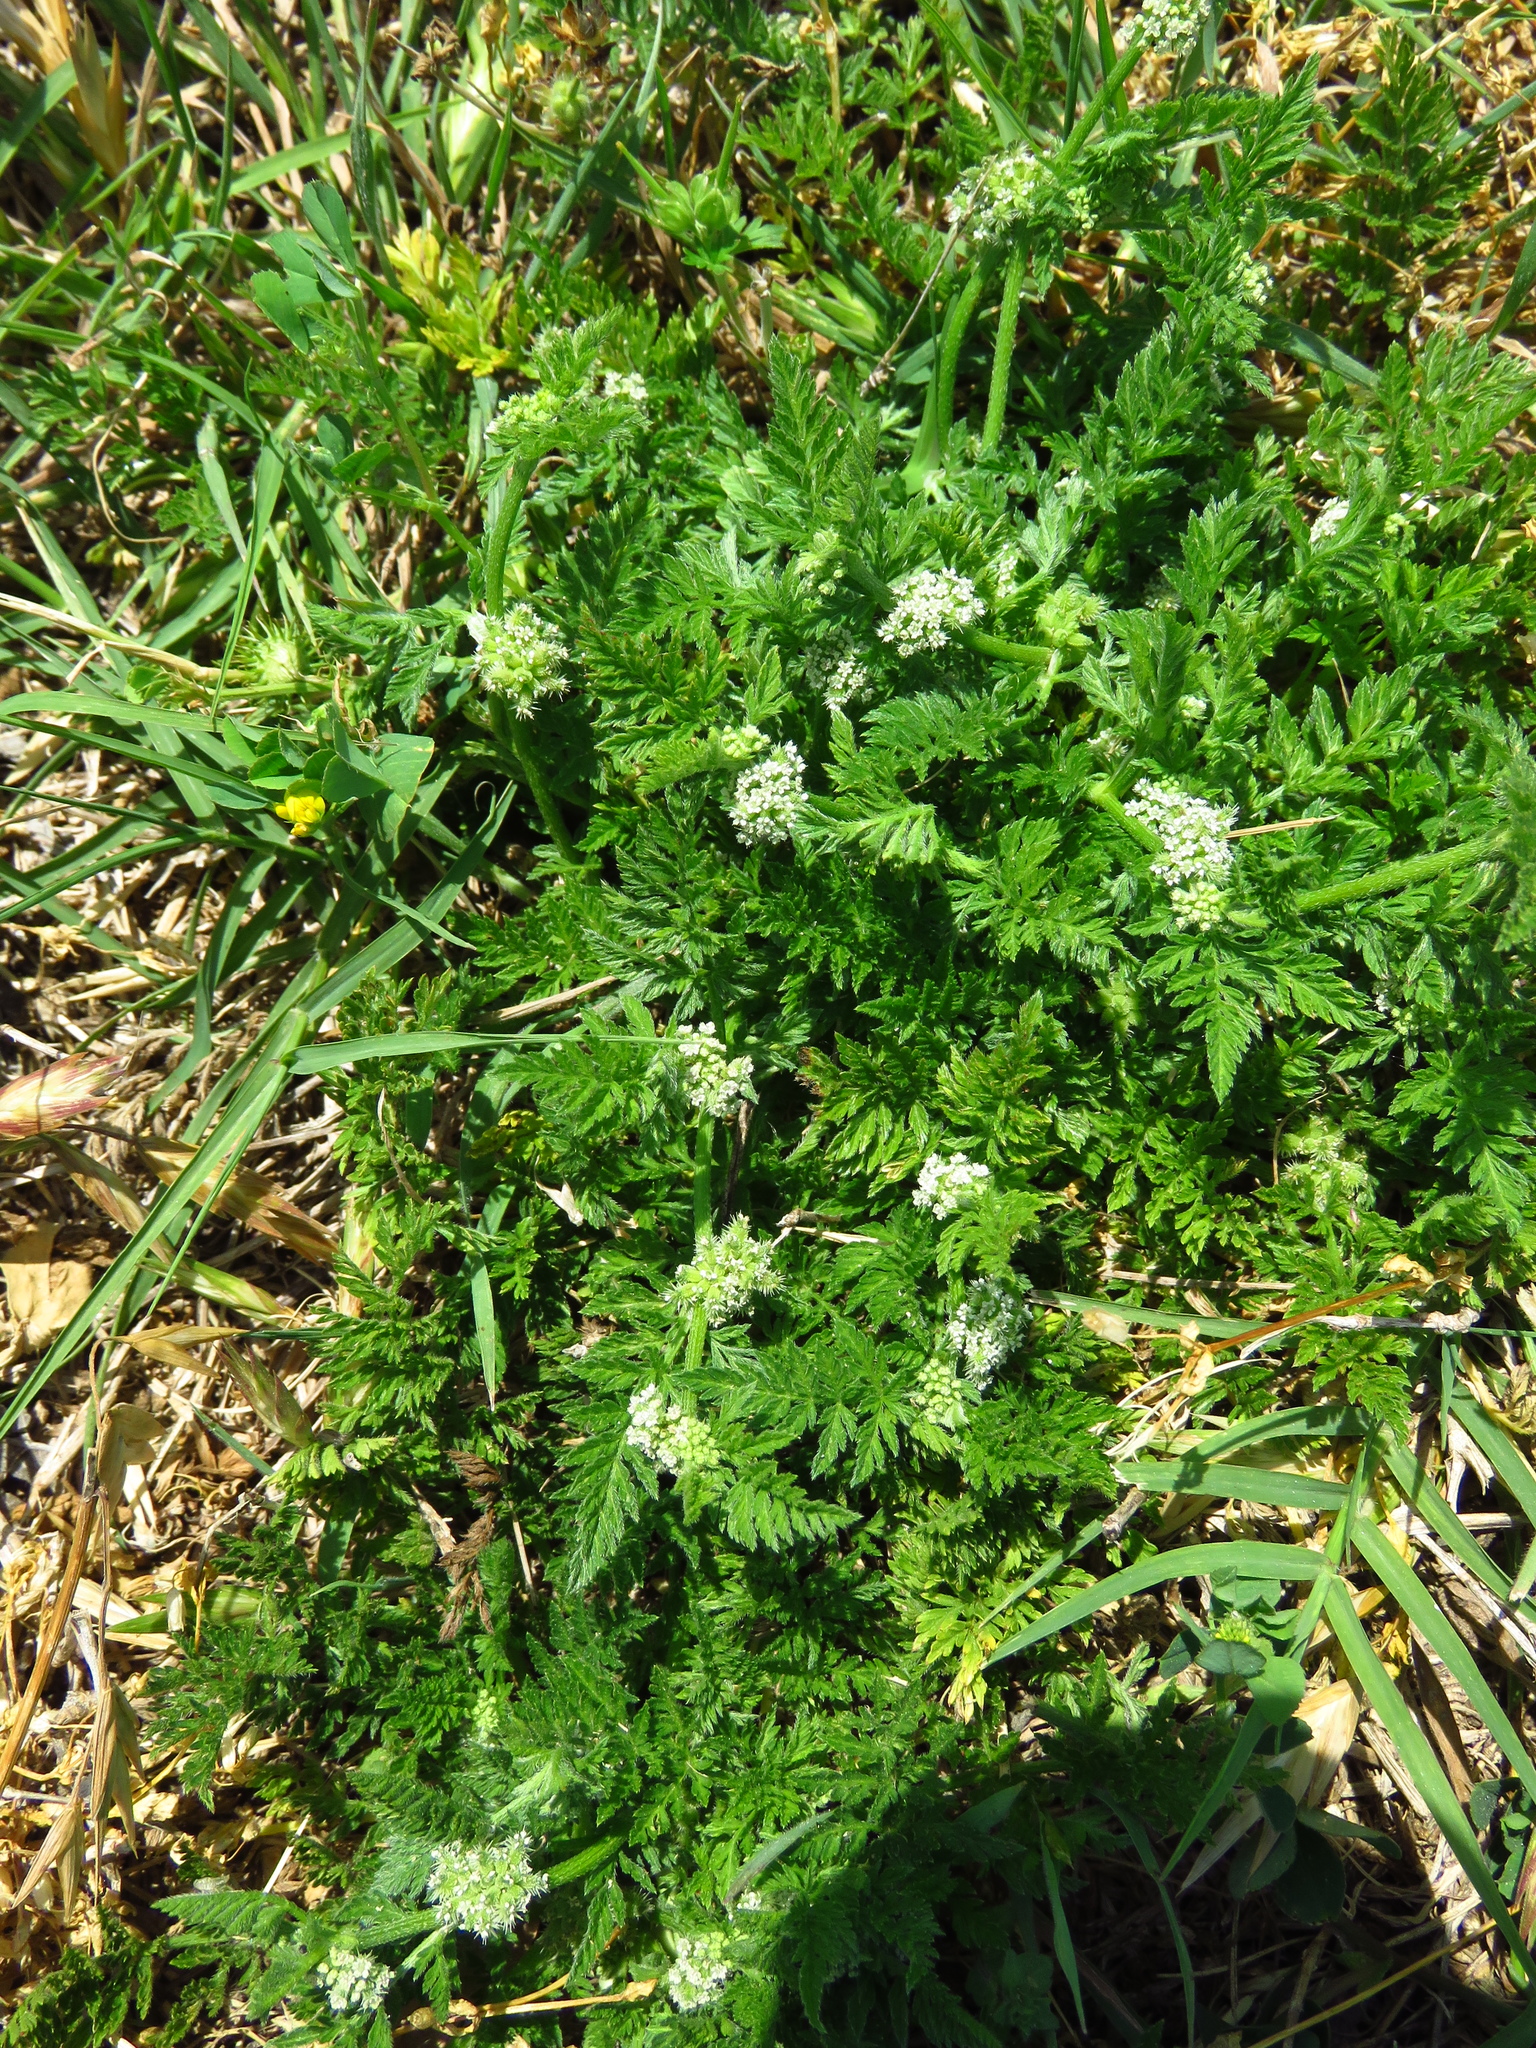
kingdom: Plantae
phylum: Tracheophyta
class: Magnoliopsida
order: Apiales
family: Apiaceae
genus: Torilis
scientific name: Torilis nodosa
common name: Knotted hedge-parsley
